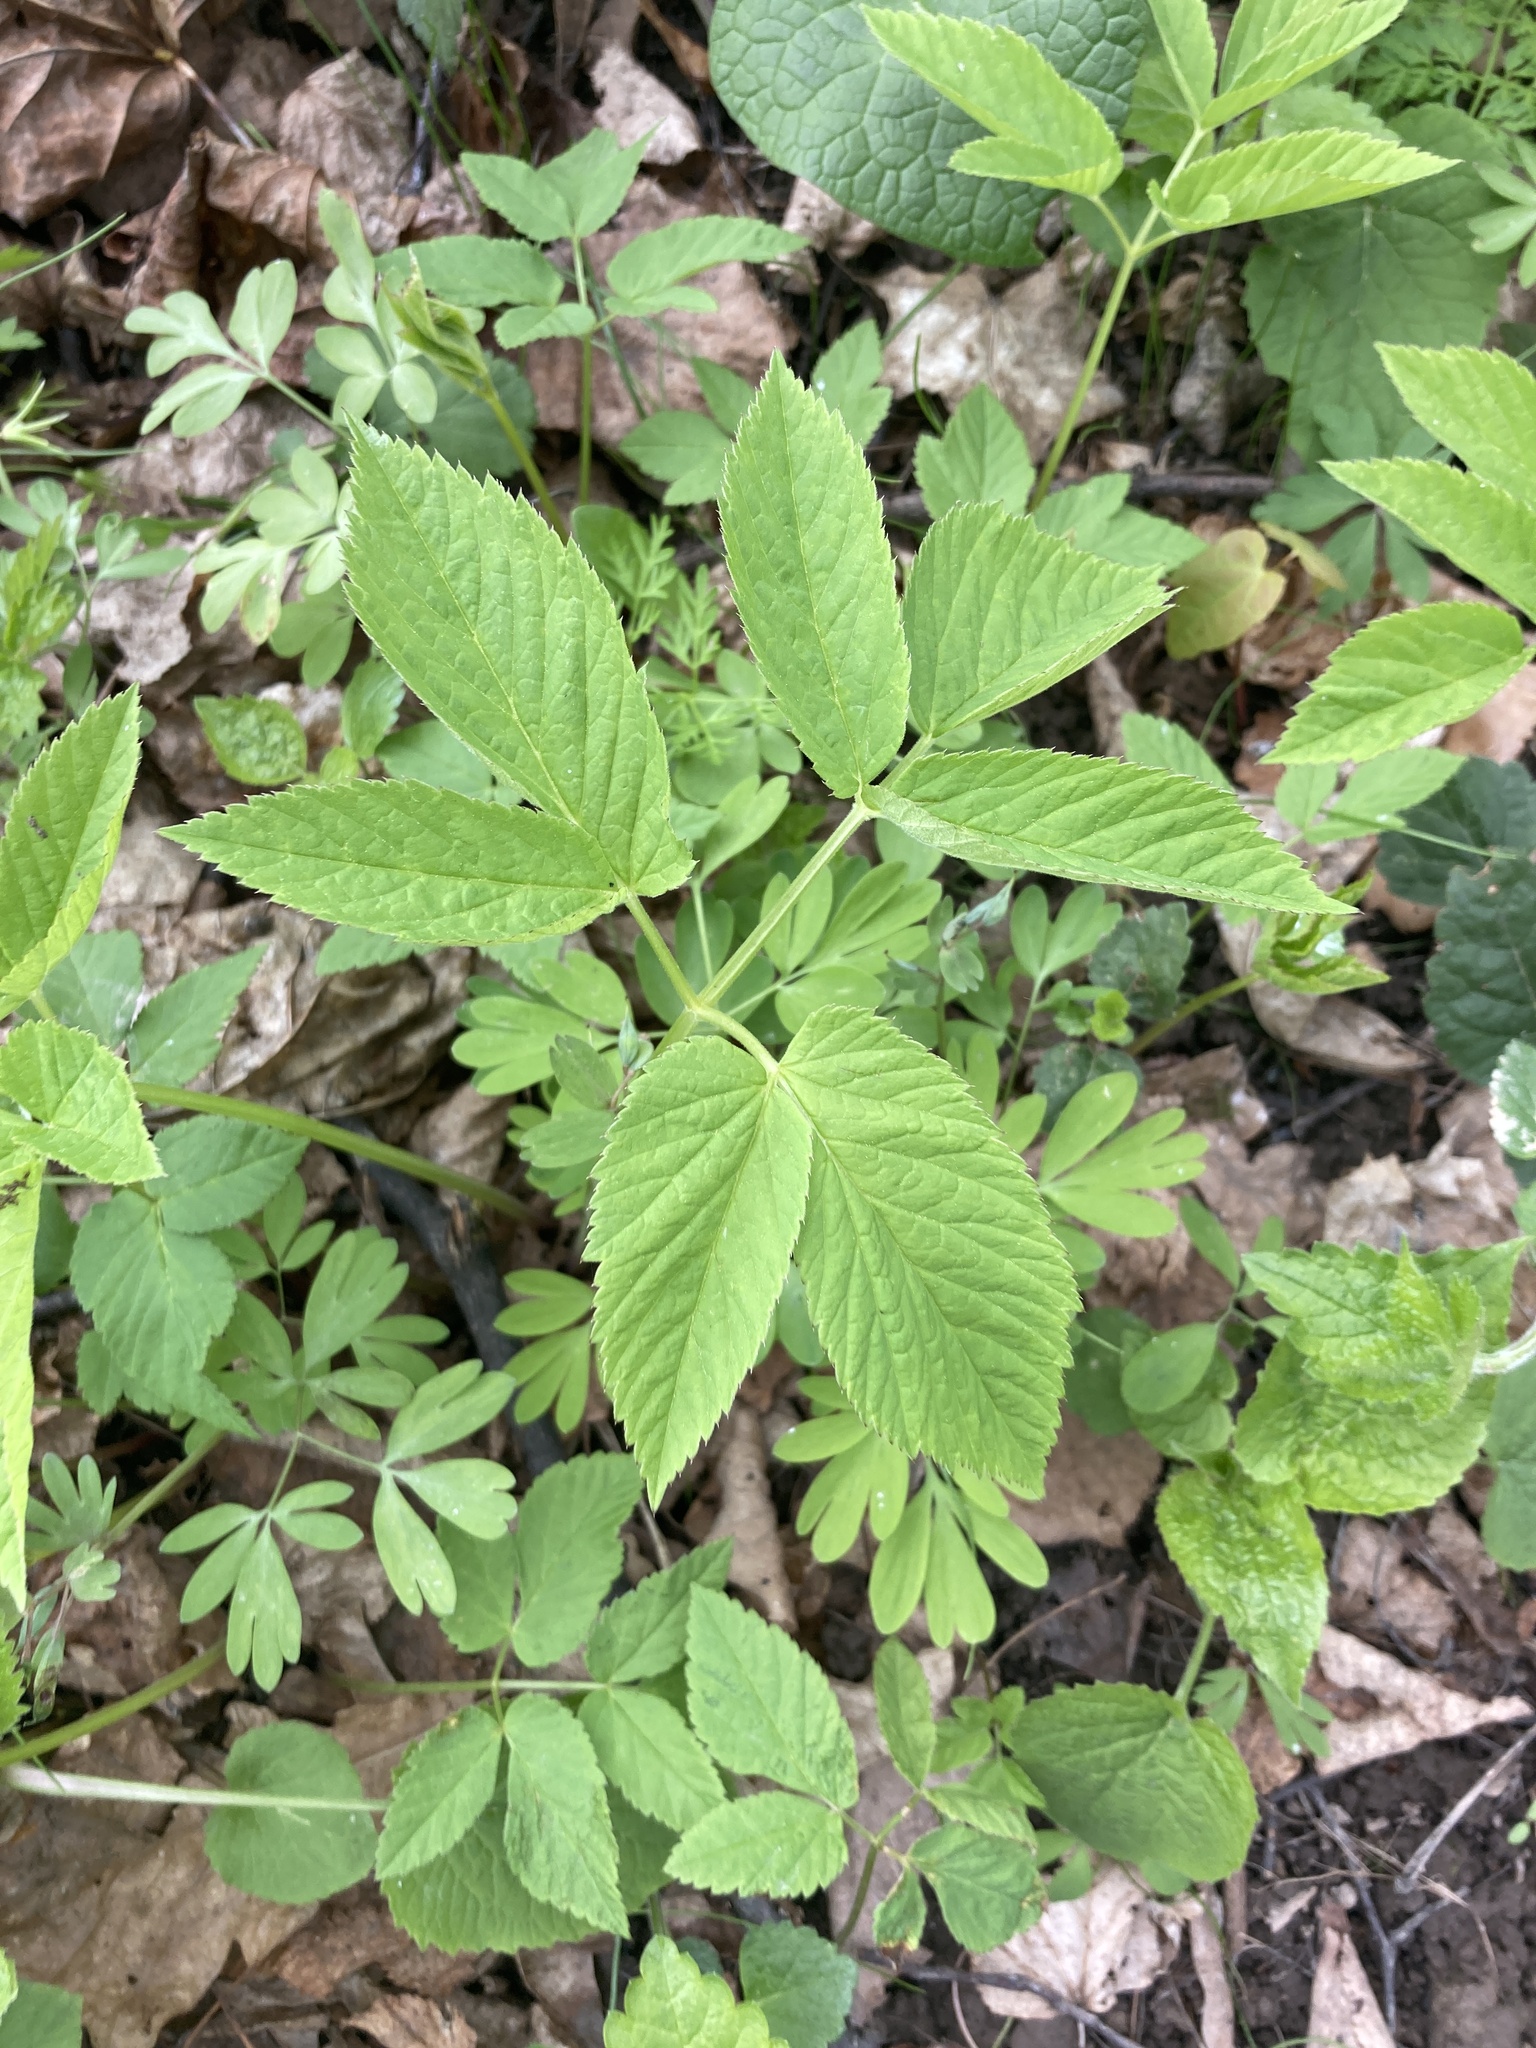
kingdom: Plantae
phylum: Tracheophyta
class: Magnoliopsida
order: Apiales
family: Apiaceae
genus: Aegopodium
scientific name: Aegopodium podagraria
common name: Ground-elder
